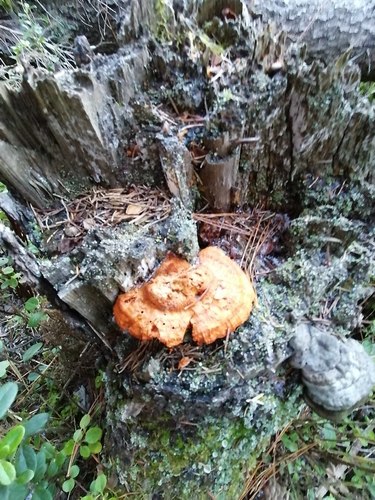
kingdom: Fungi
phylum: Basidiomycota
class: Agaricomycetes
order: Gloeophyllales
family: Gloeophyllaceae
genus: Gloeophyllum
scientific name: Gloeophyllum sepiarium
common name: Conifer mazegill
